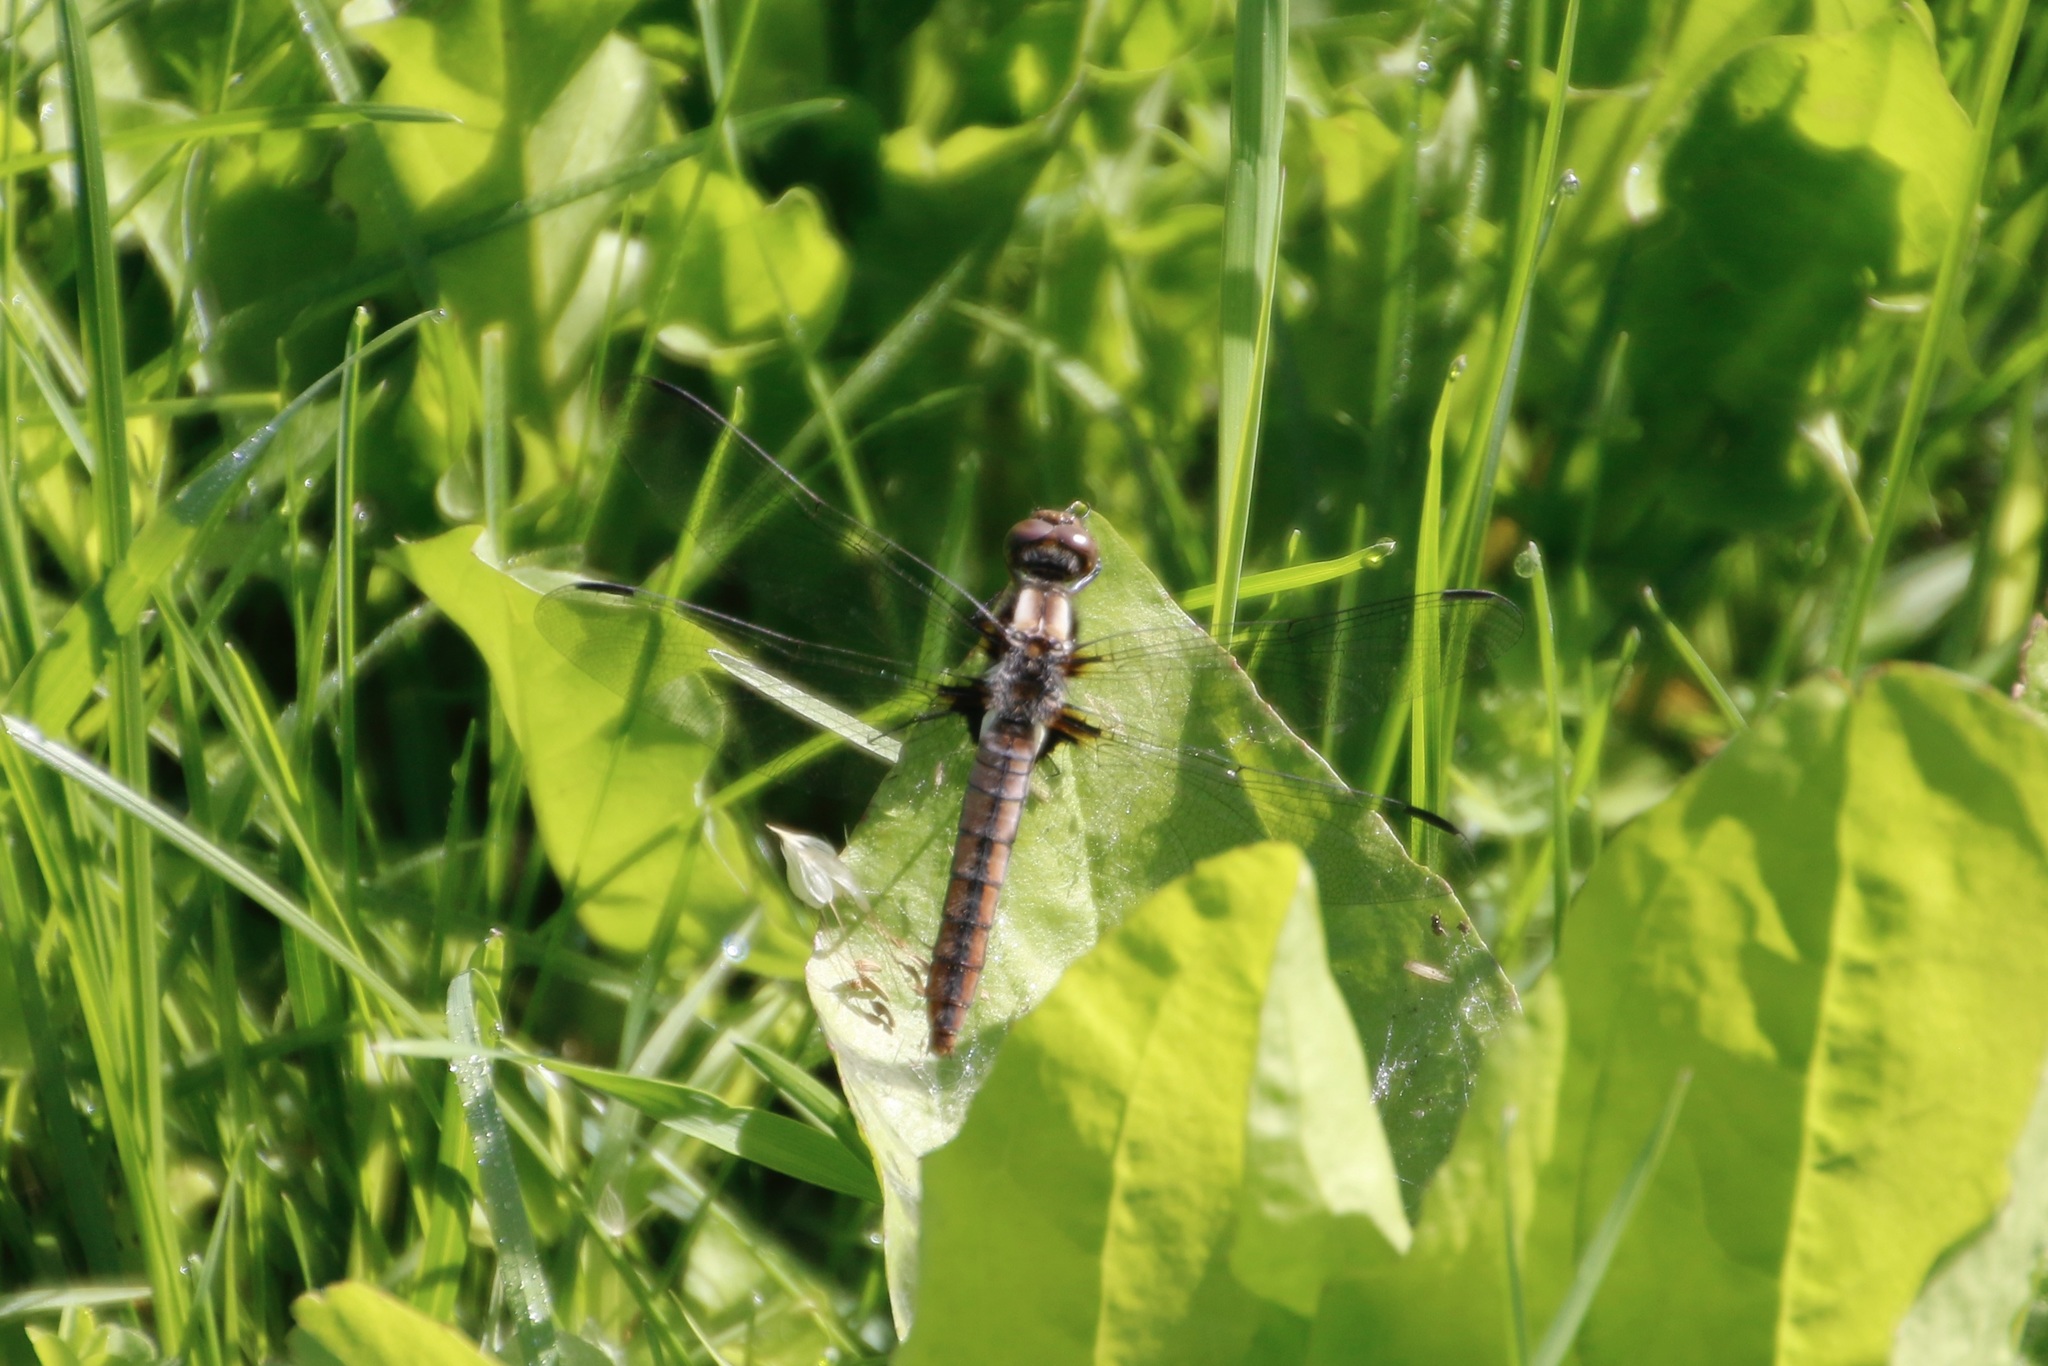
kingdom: Animalia
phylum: Arthropoda
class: Insecta
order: Odonata
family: Libellulidae
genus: Ladona
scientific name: Ladona julia
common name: Chalk-fronted corporal
